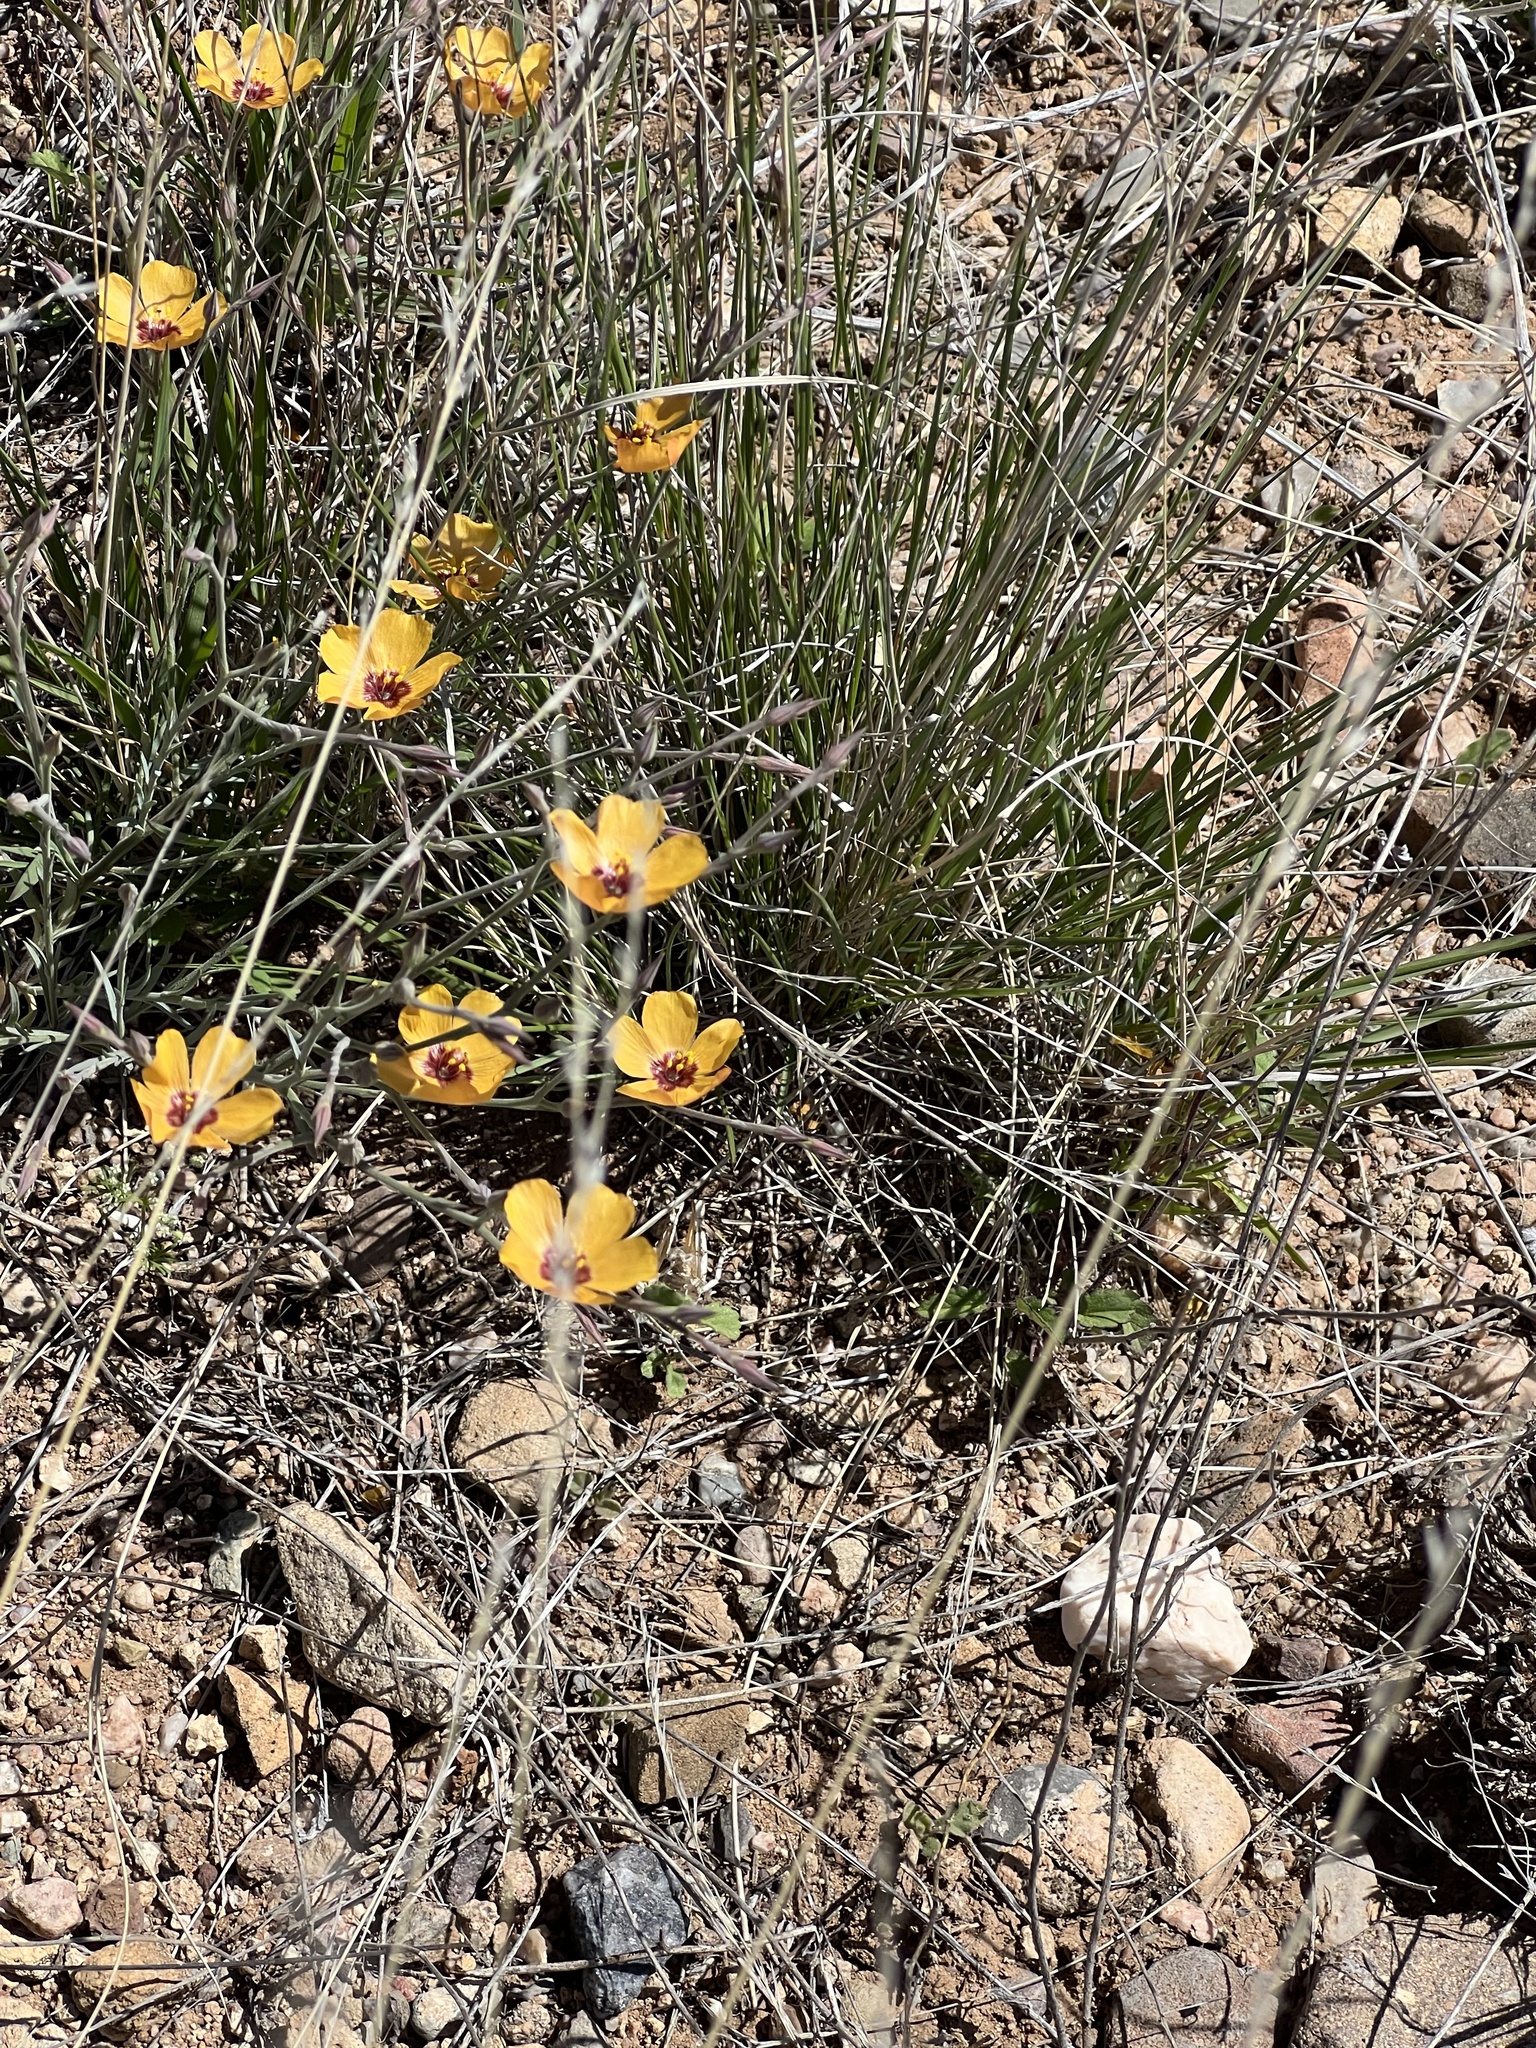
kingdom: Plantae
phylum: Tracheophyta
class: Magnoliopsida
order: Malpighiales
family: Linaceae
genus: Linum
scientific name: Linum puberulum
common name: Plains flax
